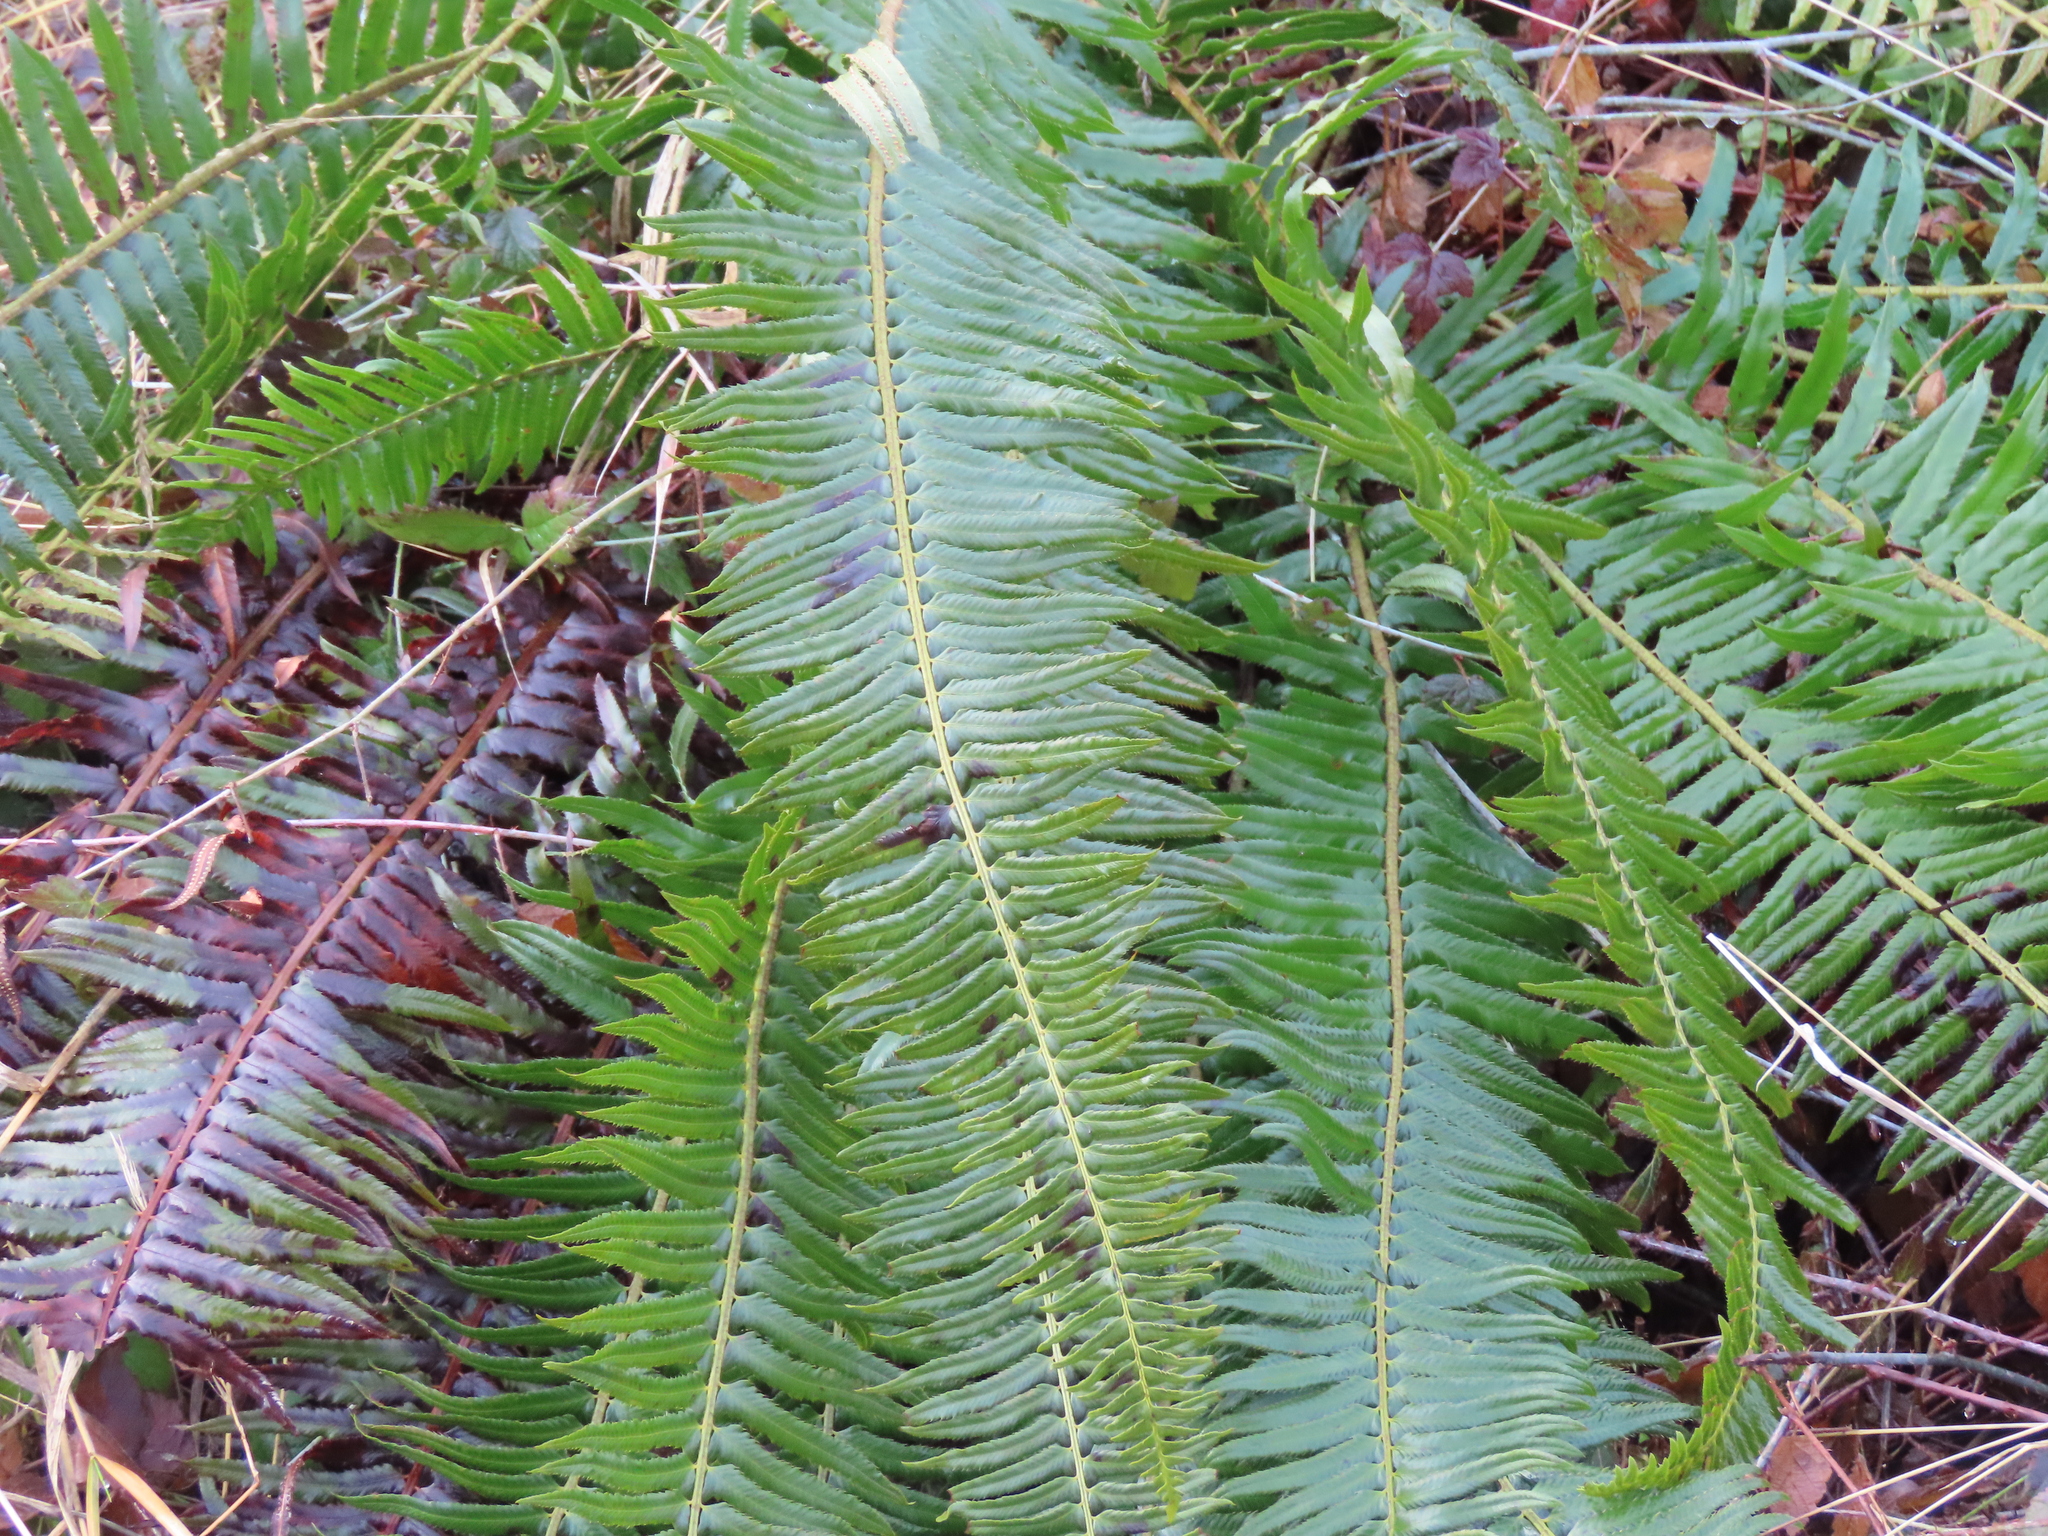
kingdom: Plantae
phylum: Tracheophyta
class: Polypodiopsida
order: Polypodiales
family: Dryopteridaceae
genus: Polystichum
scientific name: Polystichum munitum
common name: Western sword-fern
